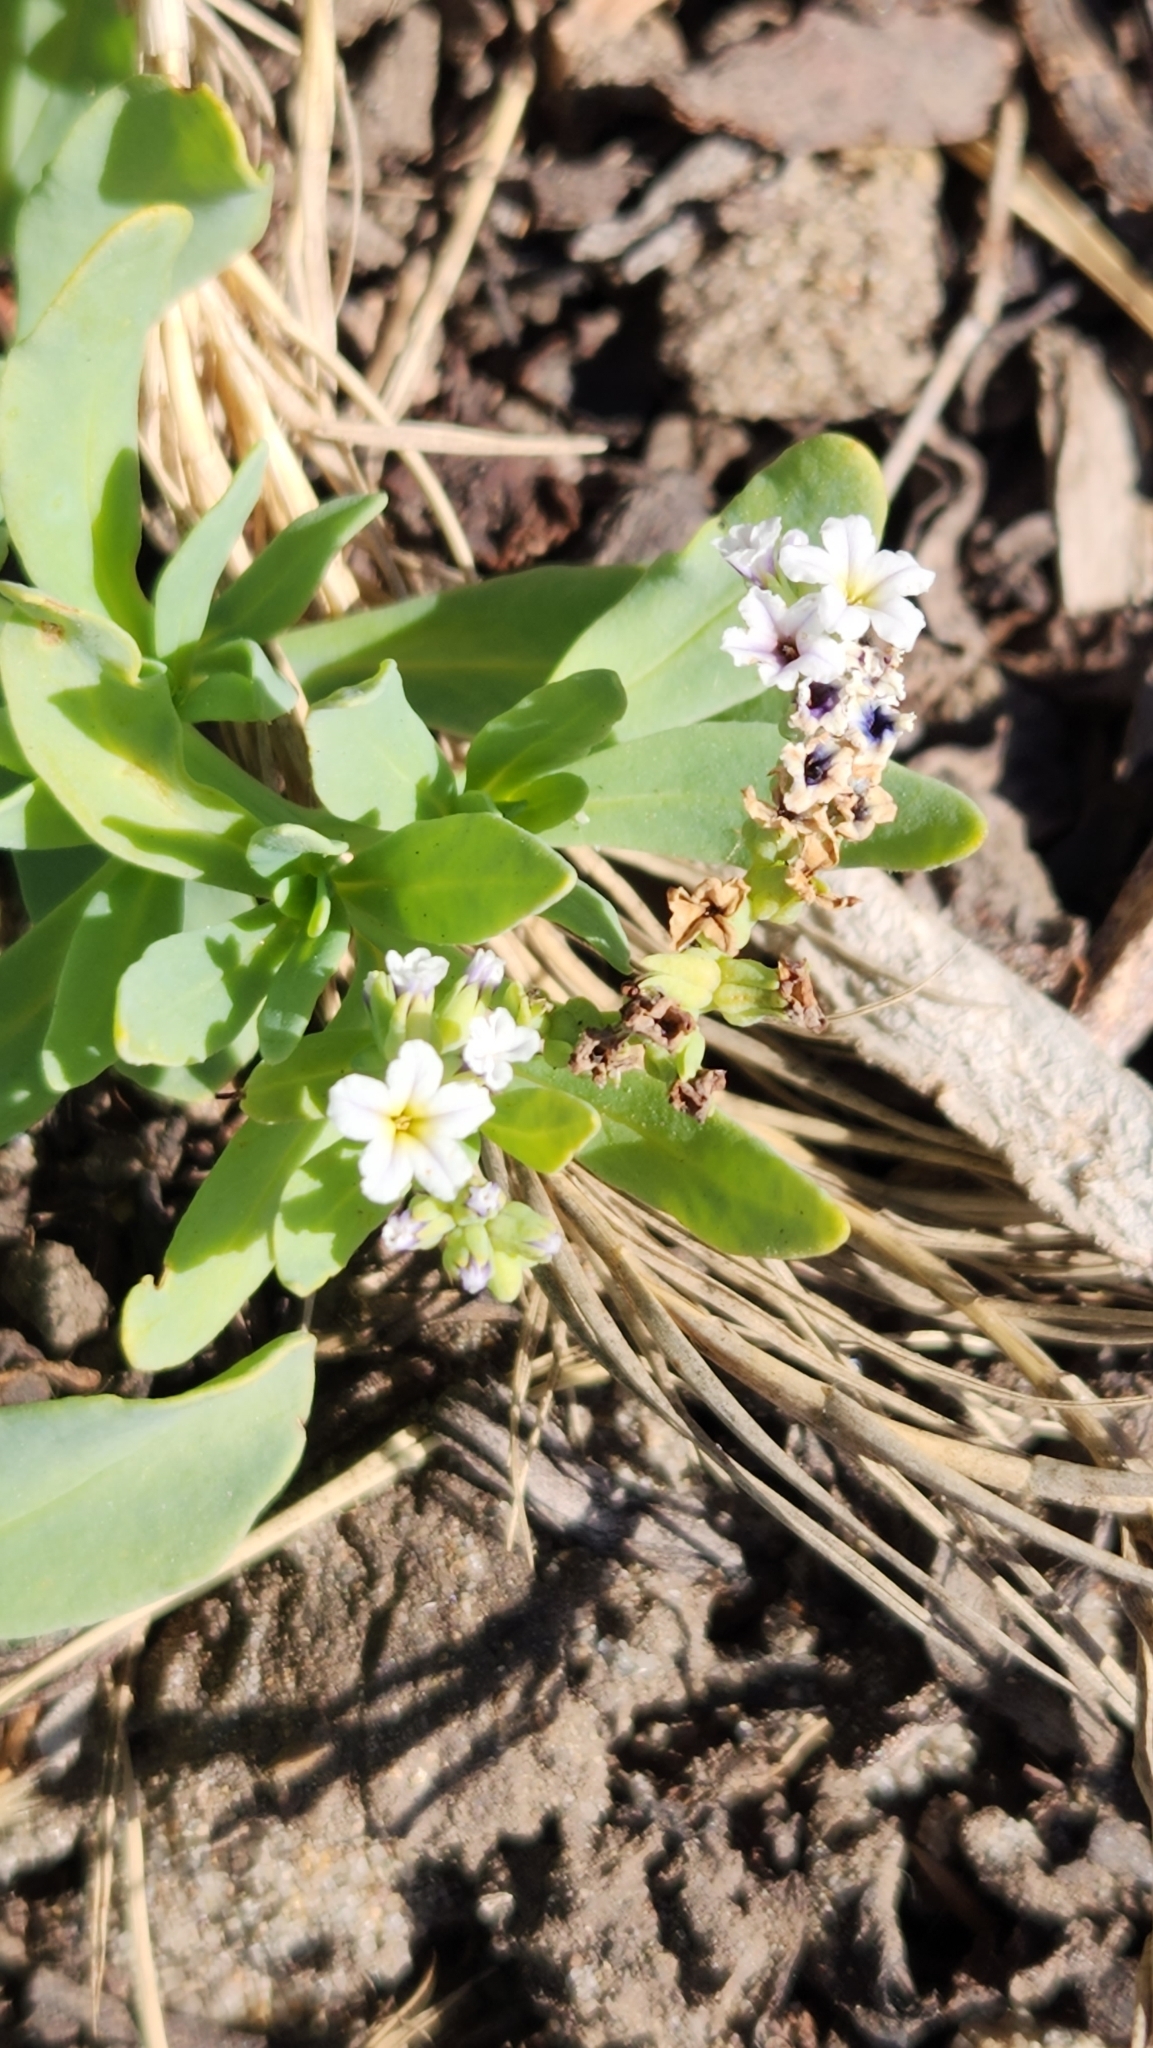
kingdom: Plantae
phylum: Tracheophyta
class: Magnoliopsida
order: Boraginales
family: Heliotropiaceae
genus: Heliotropium
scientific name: Heliotropium curassavicum
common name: Seaside heliotrope
